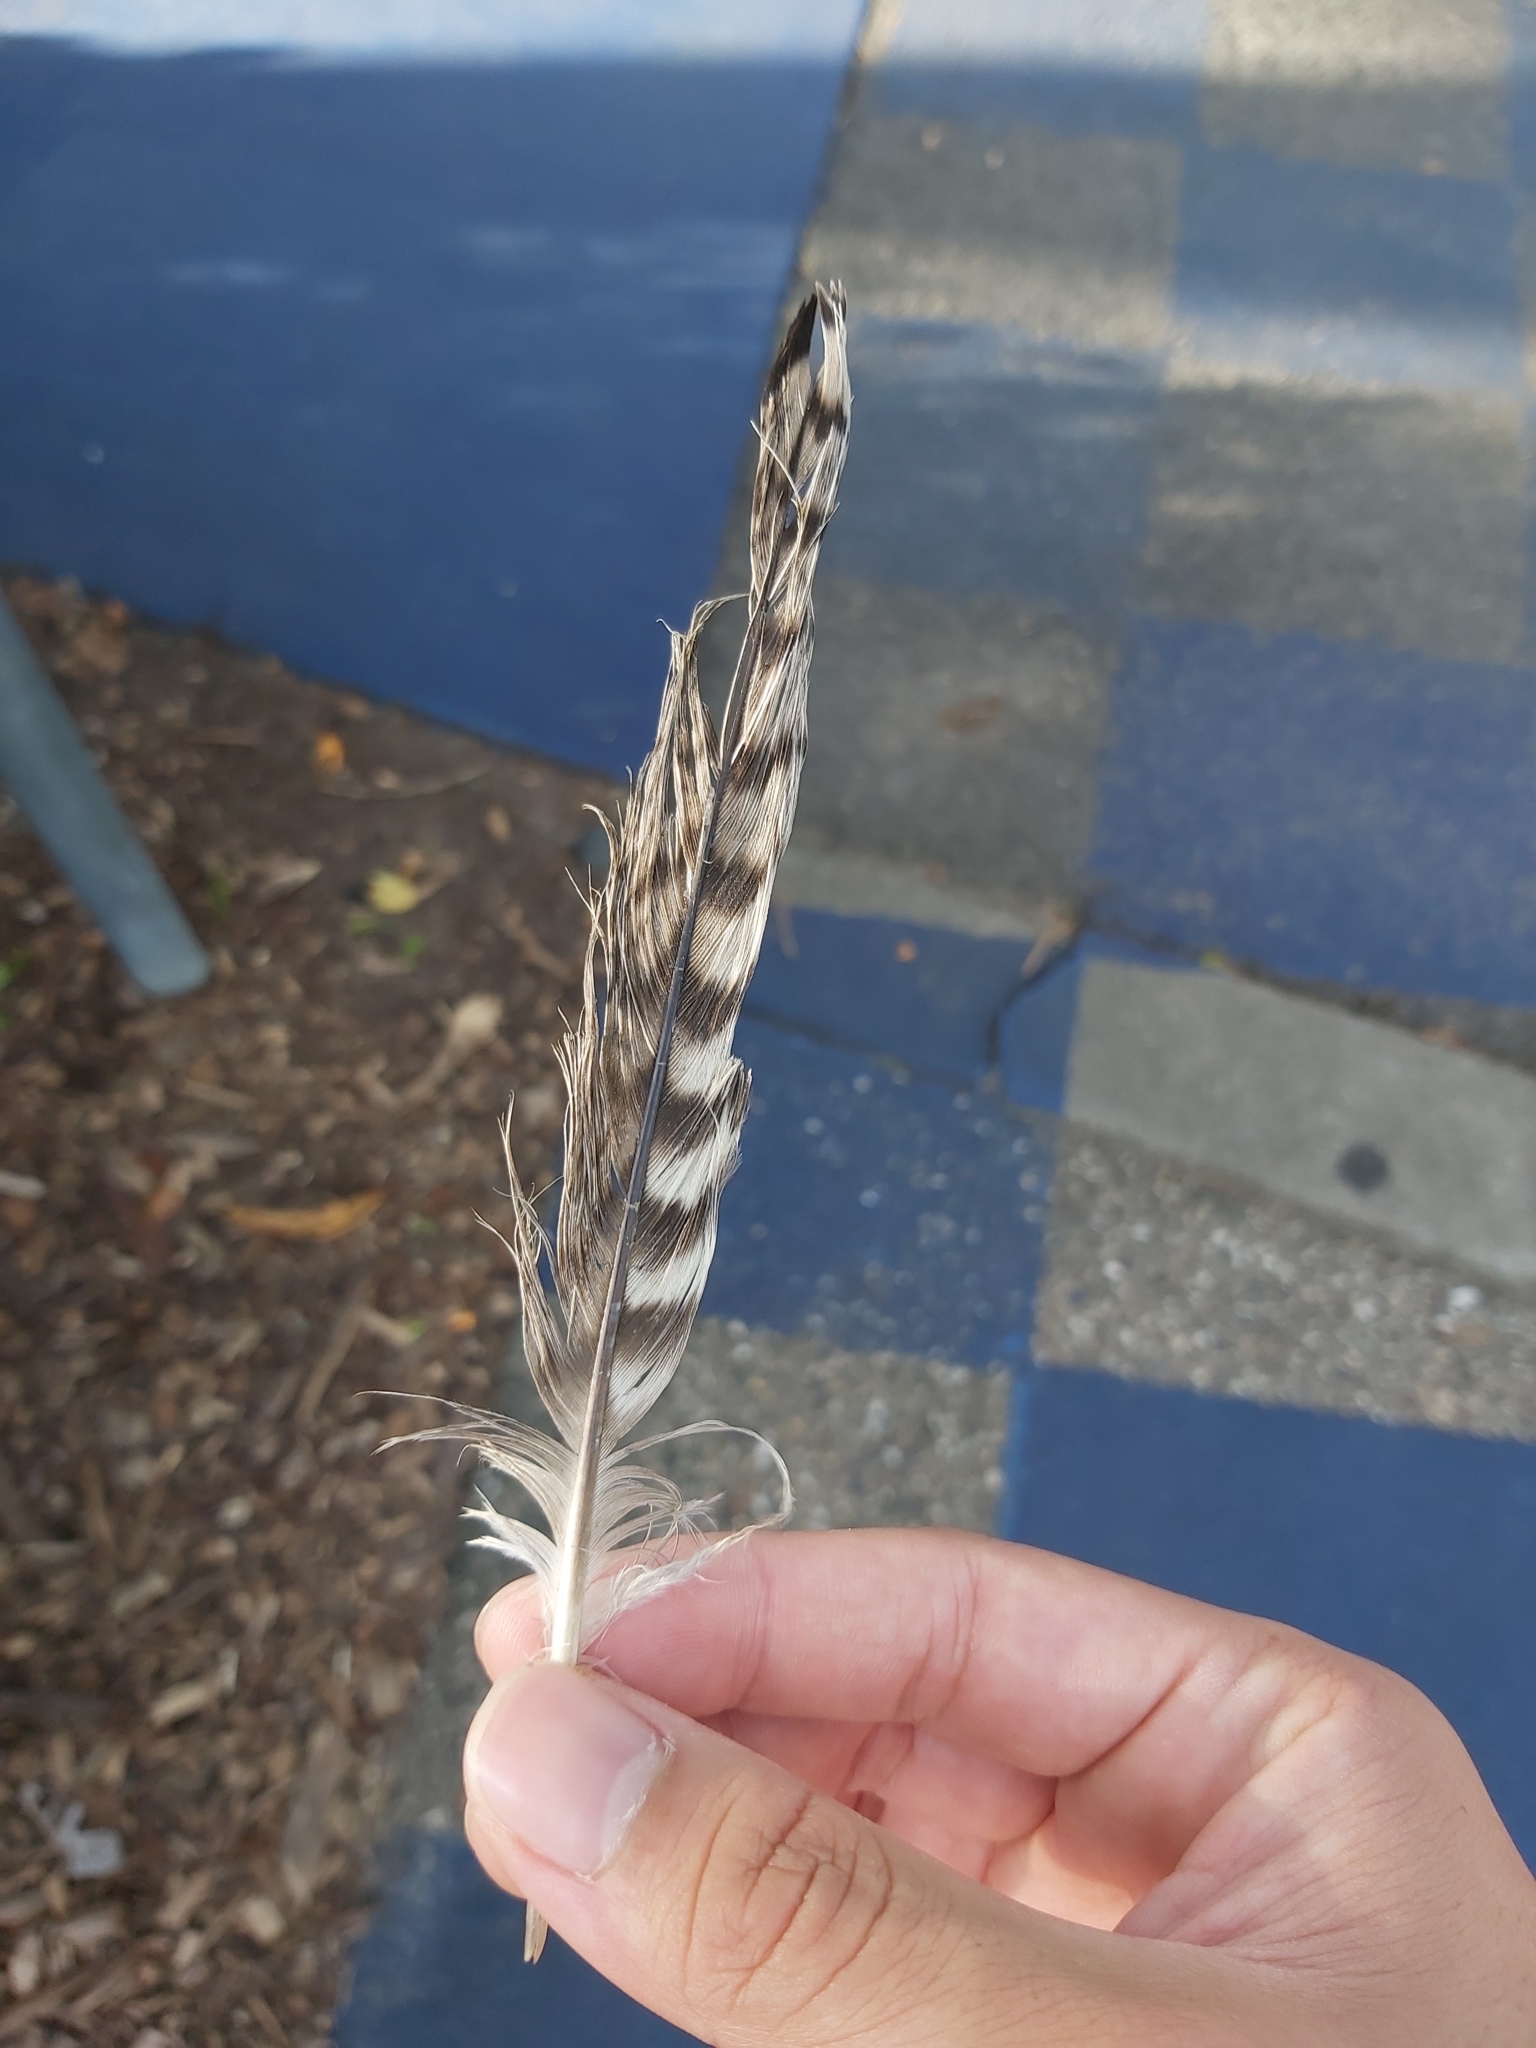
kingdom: Animalia
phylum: Chordata
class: Aves
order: Charadriiformes
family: Burhinidae
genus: Burhinus
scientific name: Burhinus grallarius
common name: Bush stone-curlew
